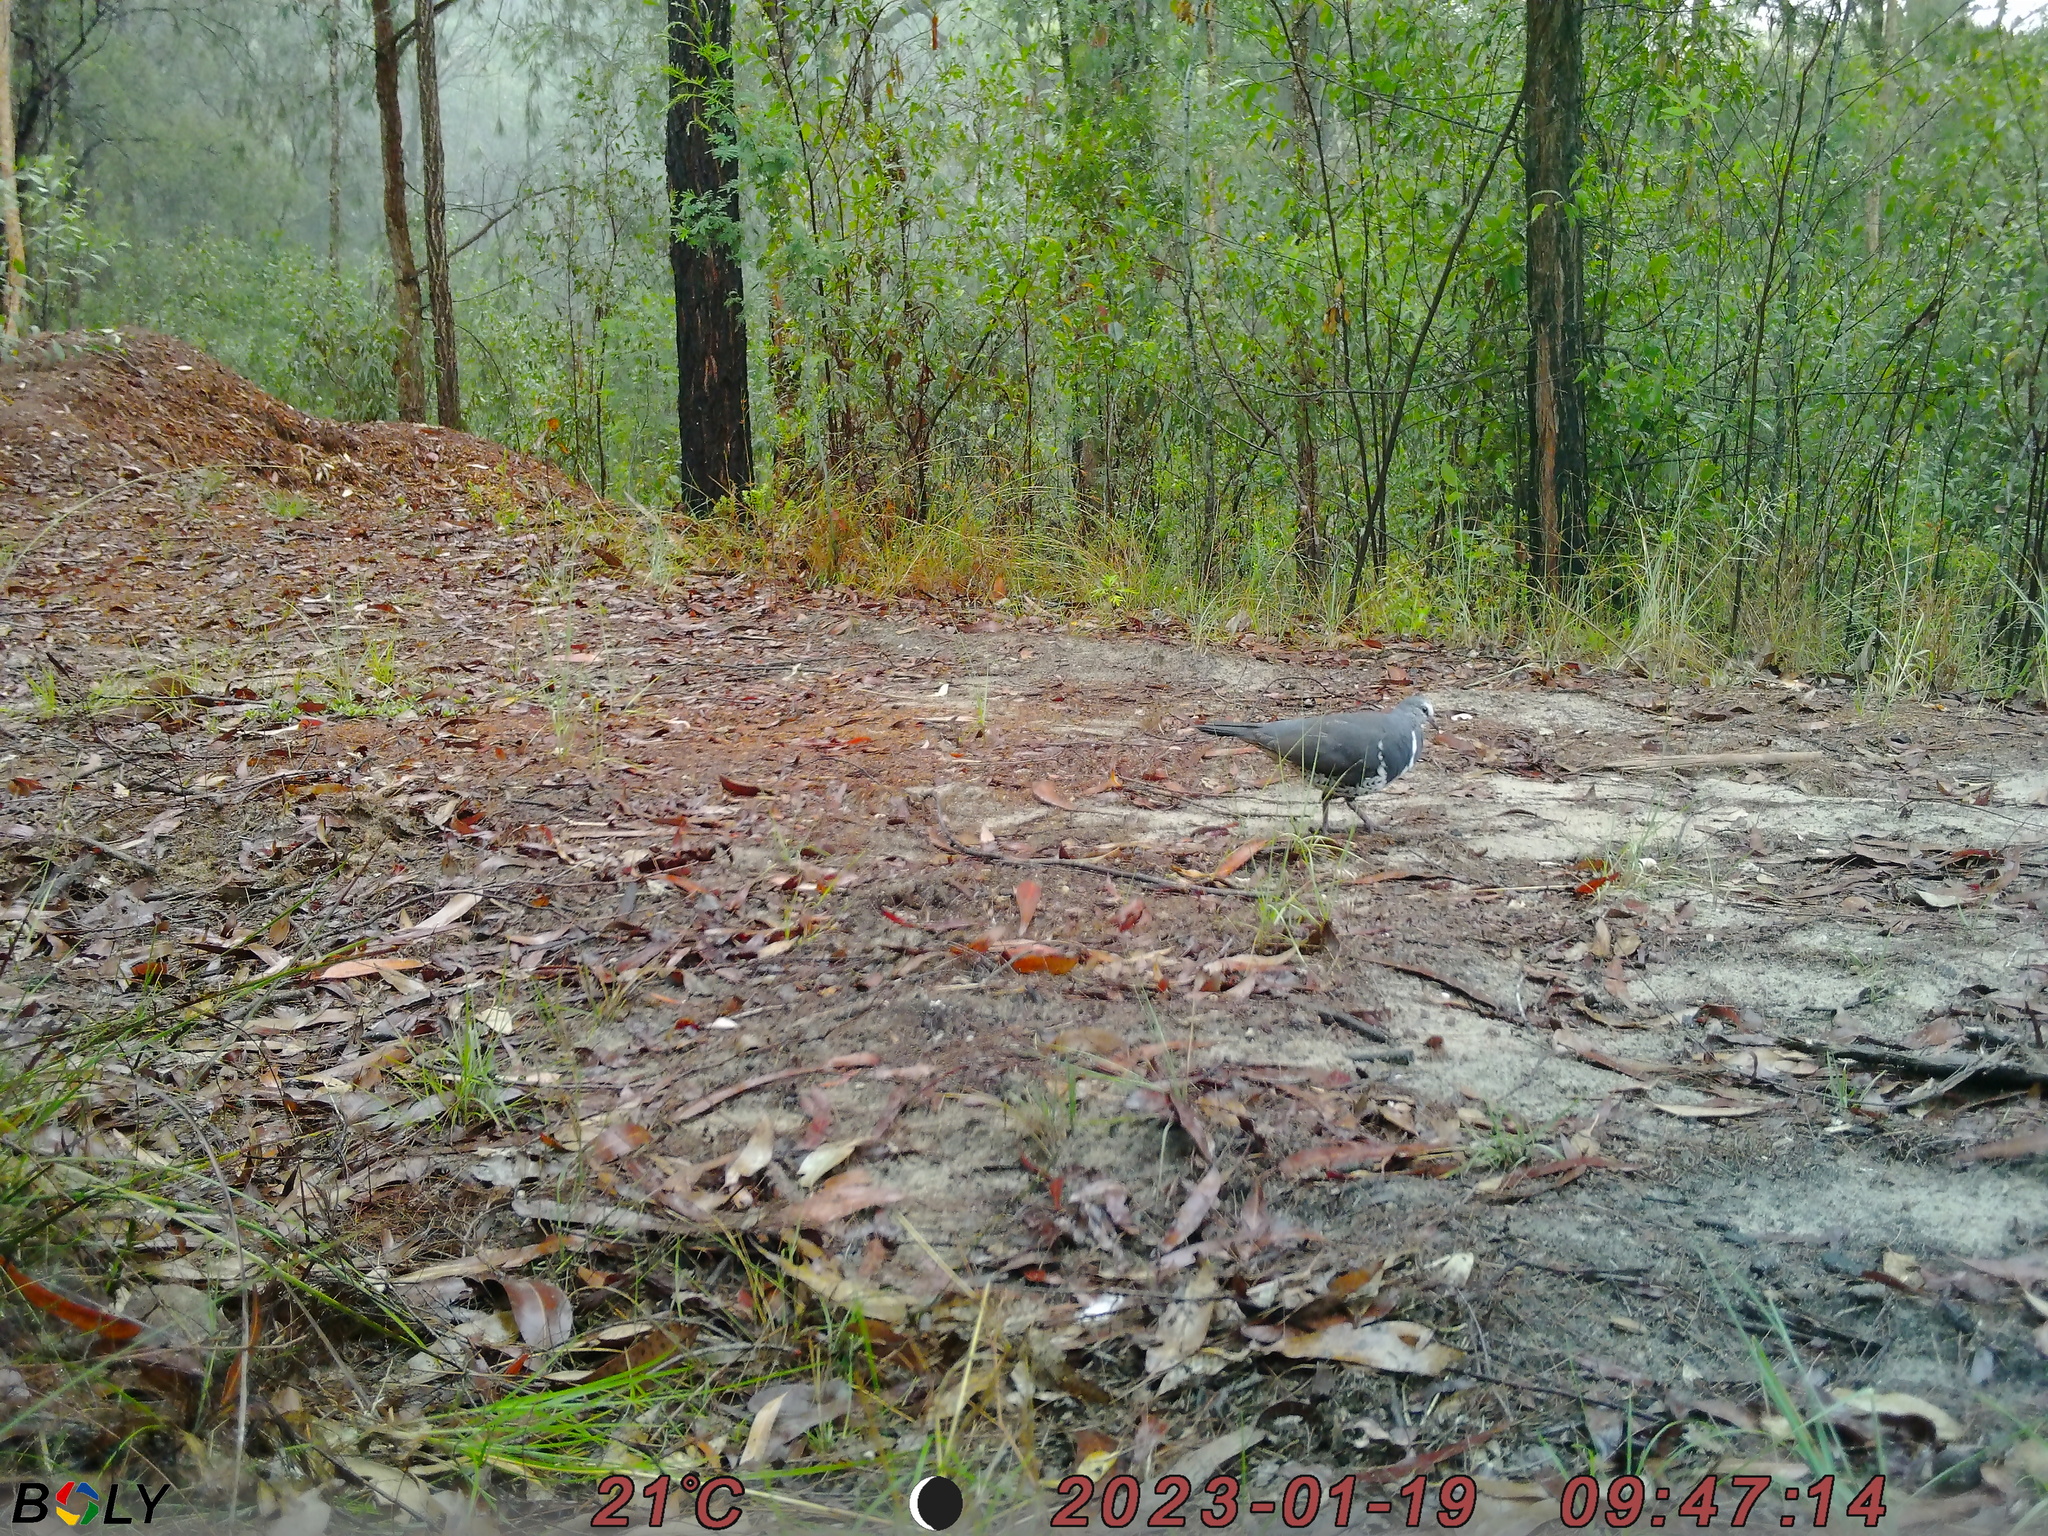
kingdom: Animalia
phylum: Chordata
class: Aves
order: Columbiformes
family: Columbidae
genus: Leucosarcia
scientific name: Leucosarcia melanoleuca
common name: Wonga pigeon
